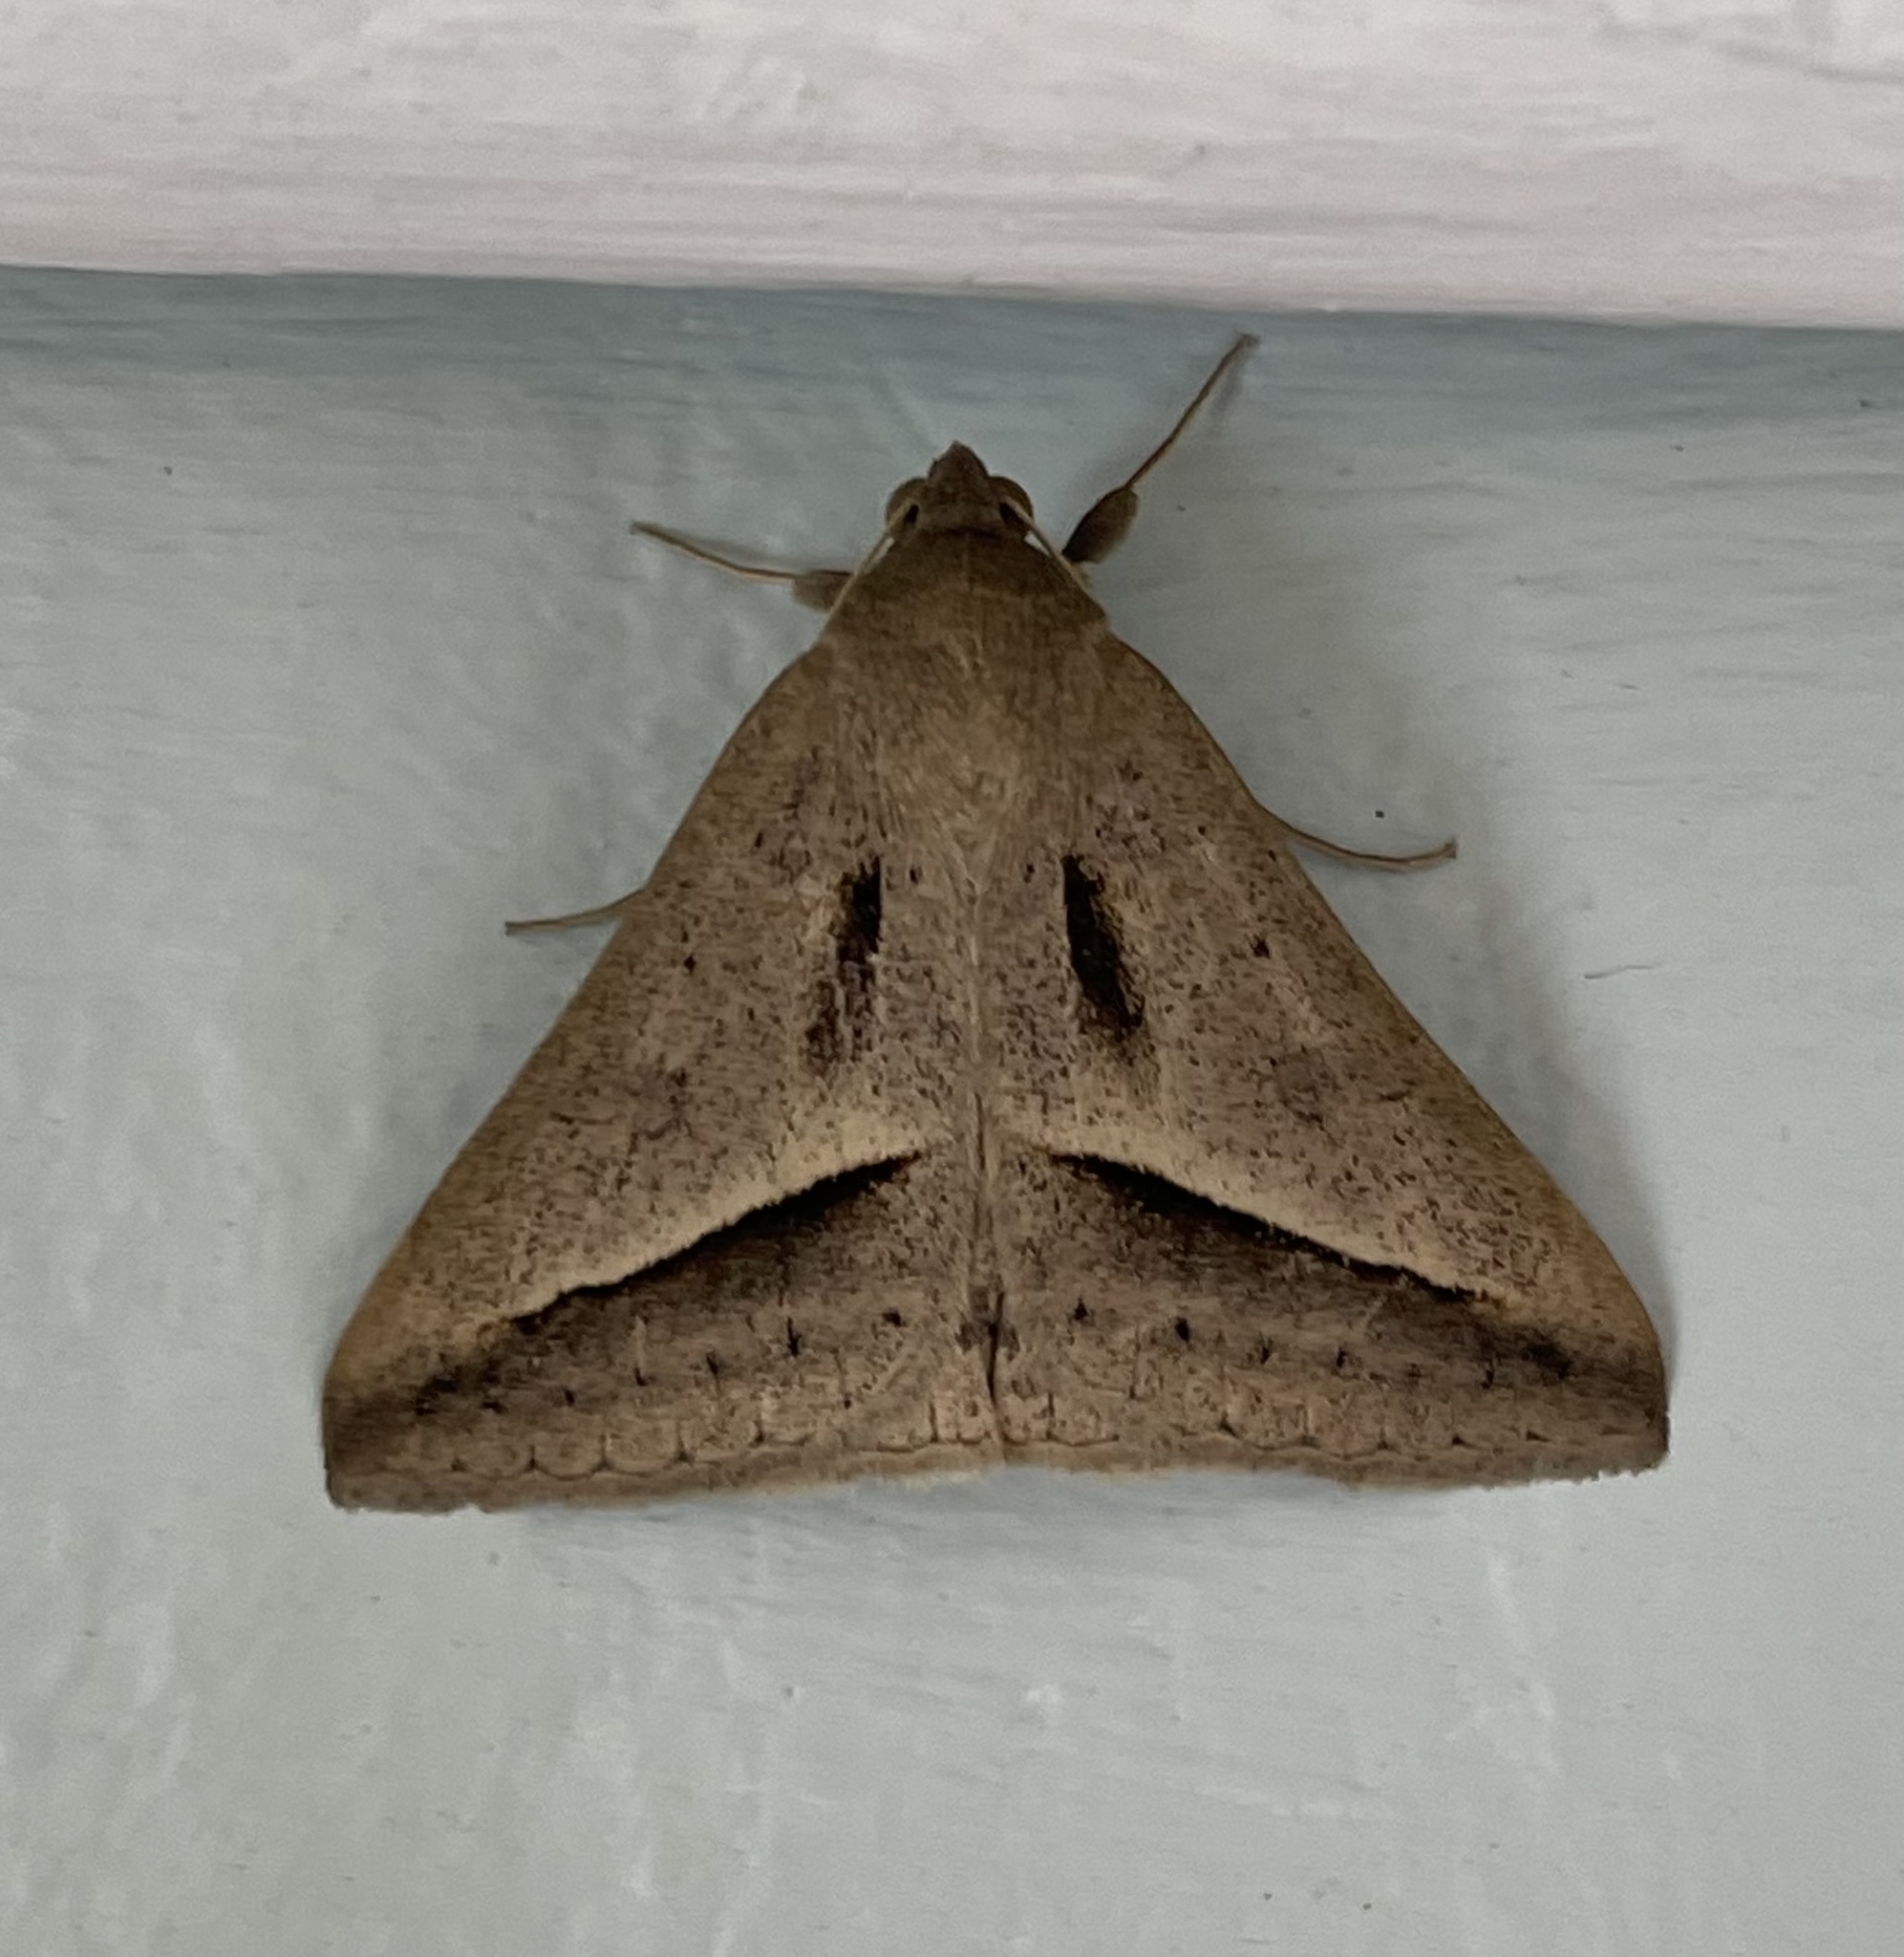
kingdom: Animalia
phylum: Arthropoda
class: Insecta
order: Lepidoptera
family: Erebidae
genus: Mocis
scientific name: Mocis proverai
